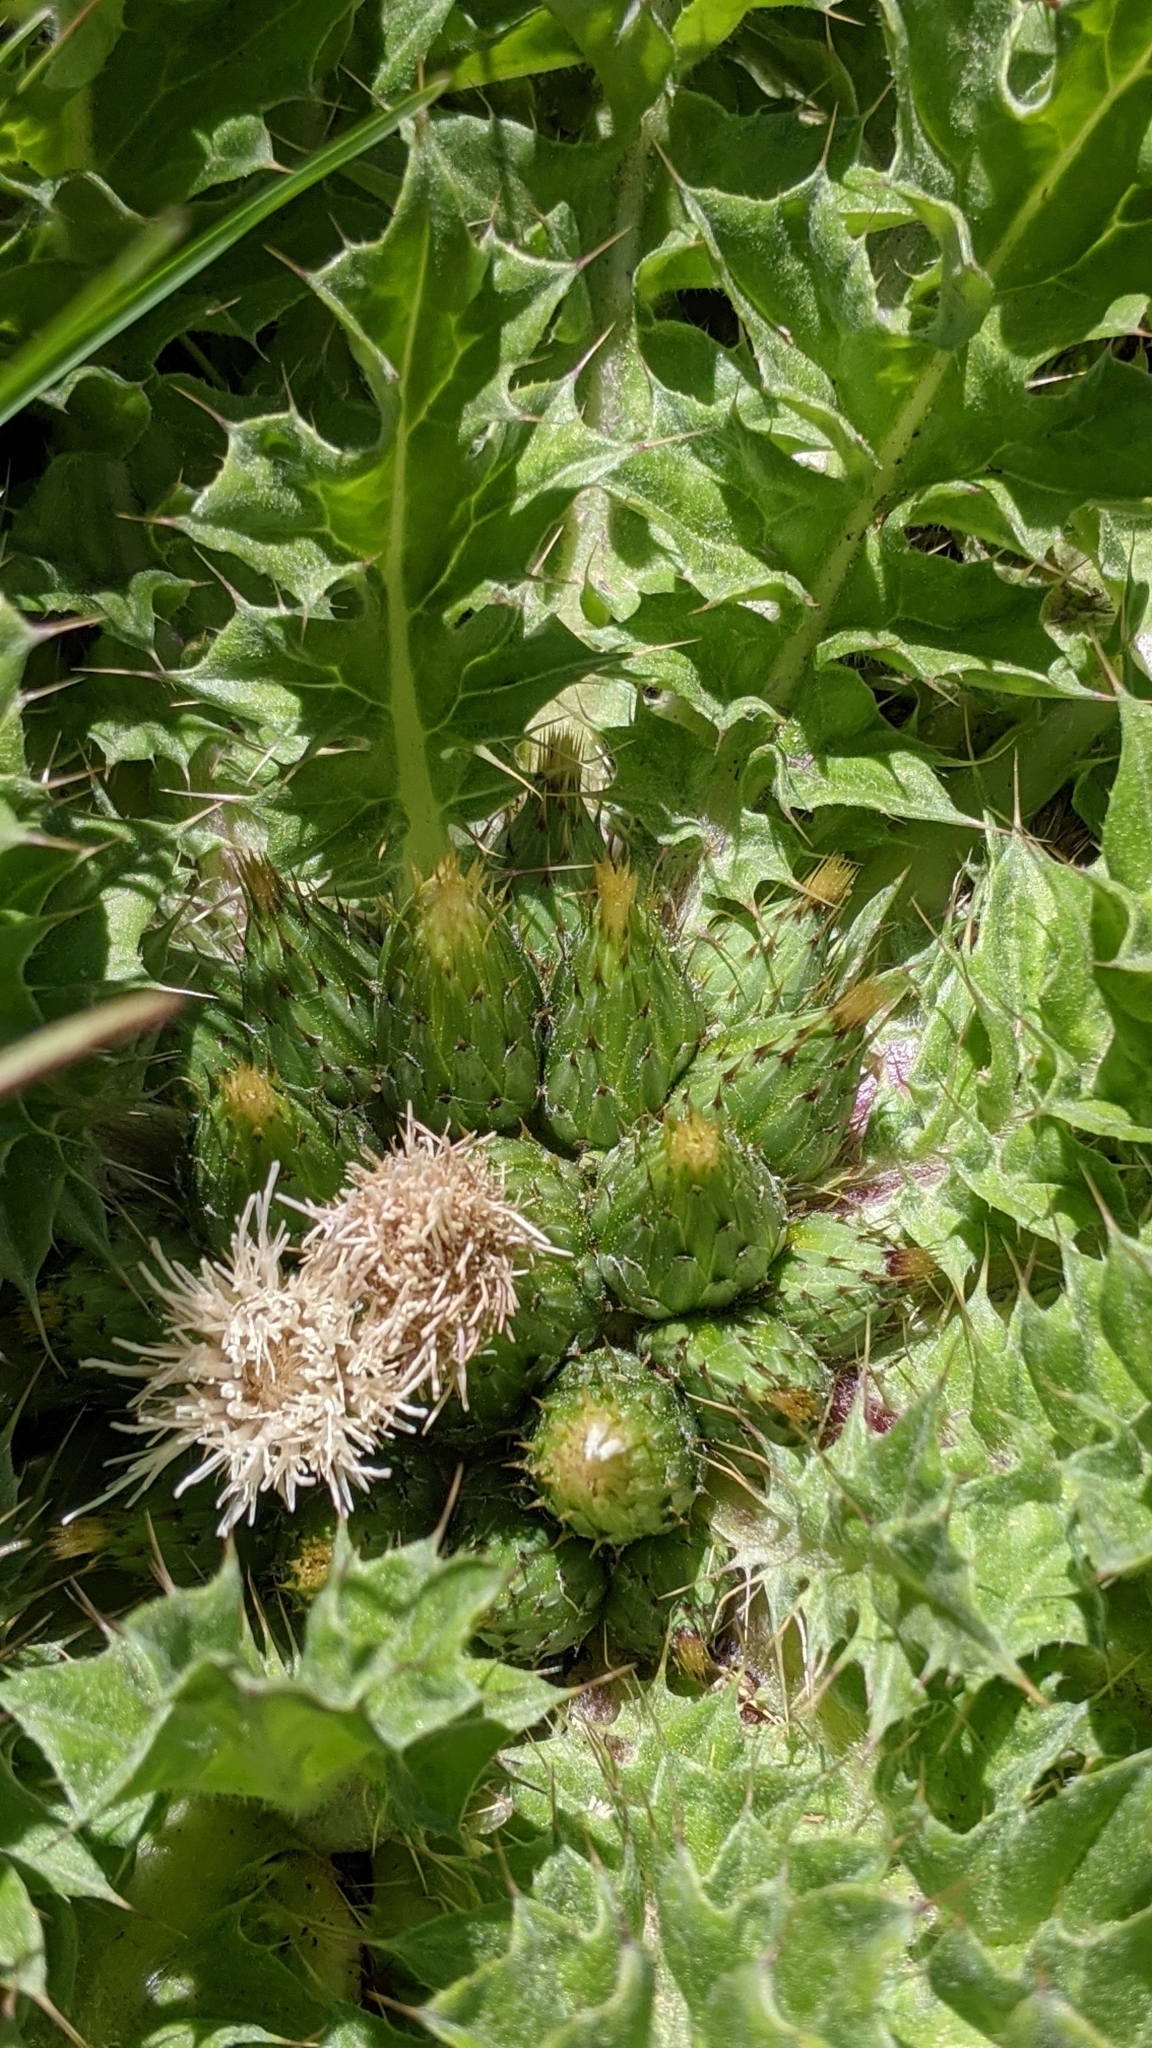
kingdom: Plantae
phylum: Tracheophyta
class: Magnoliopsida
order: Asterales
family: Asteraceae
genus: Cirsium
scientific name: Cirsium scariosum
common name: Meadow thistle
